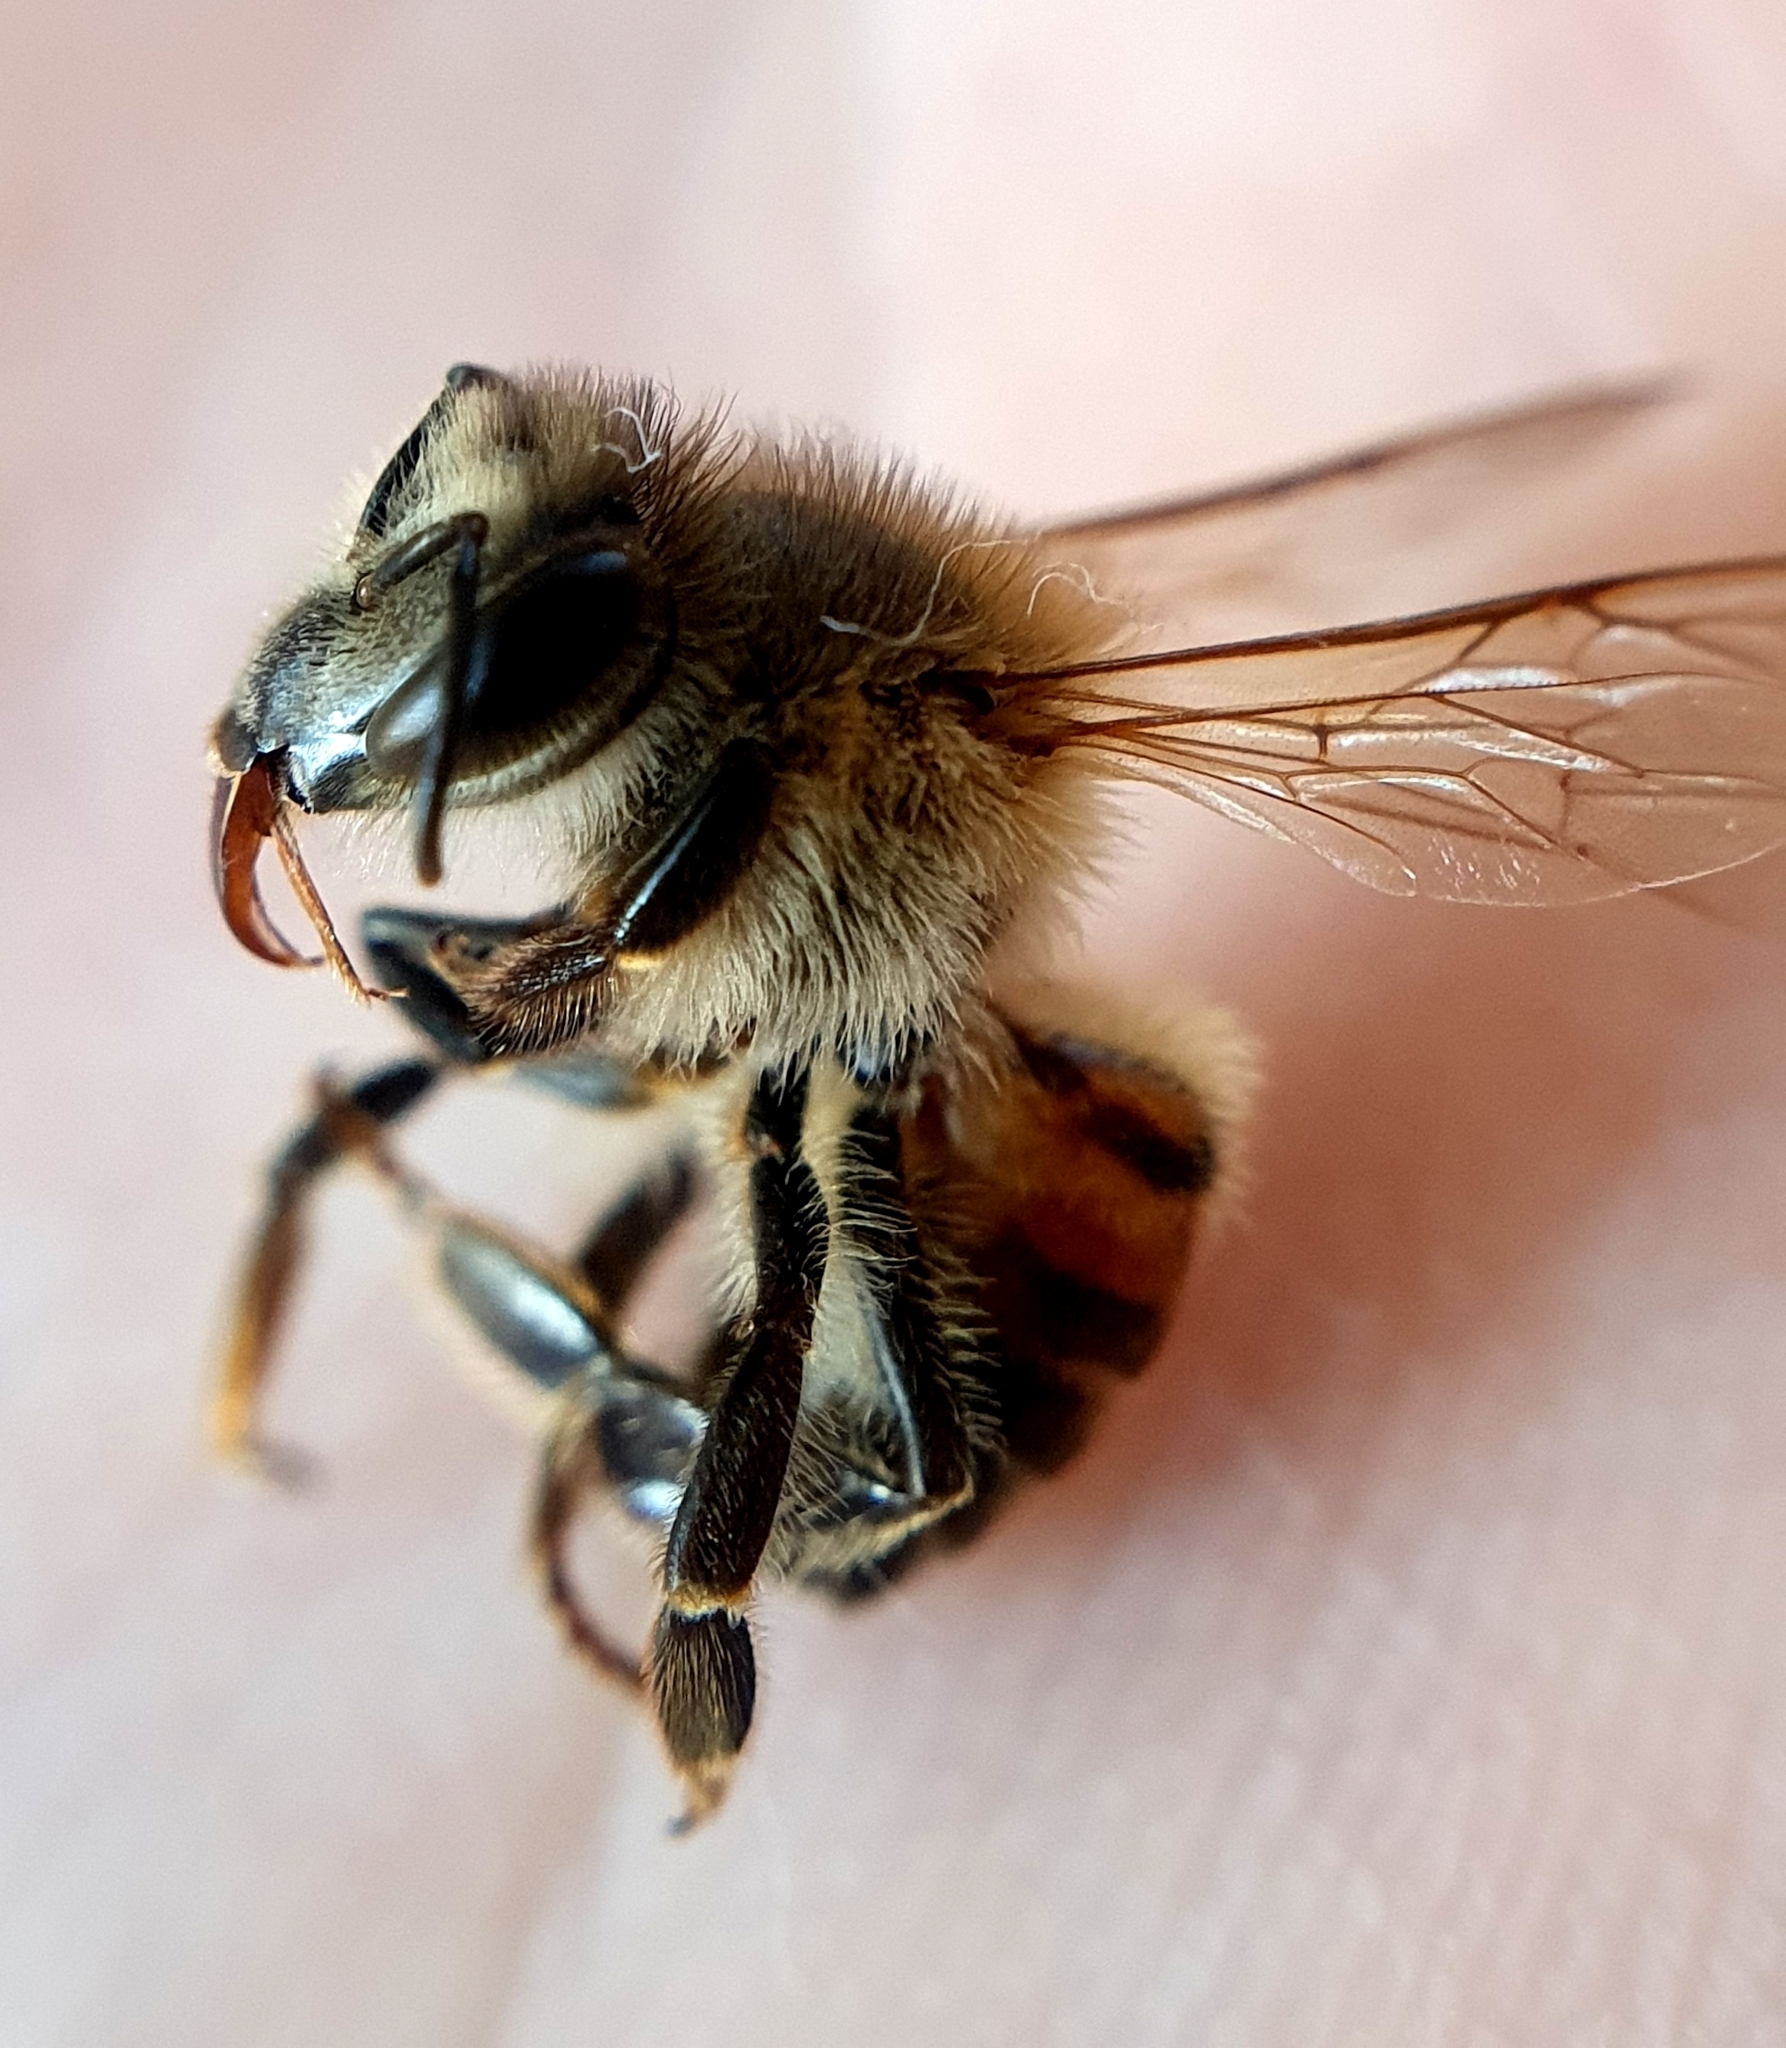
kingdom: Animalia
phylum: Arthropoda
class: Insecta
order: Hymenoptera
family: Apidae
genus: Apis
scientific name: Apis mellifera
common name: Honey bee
